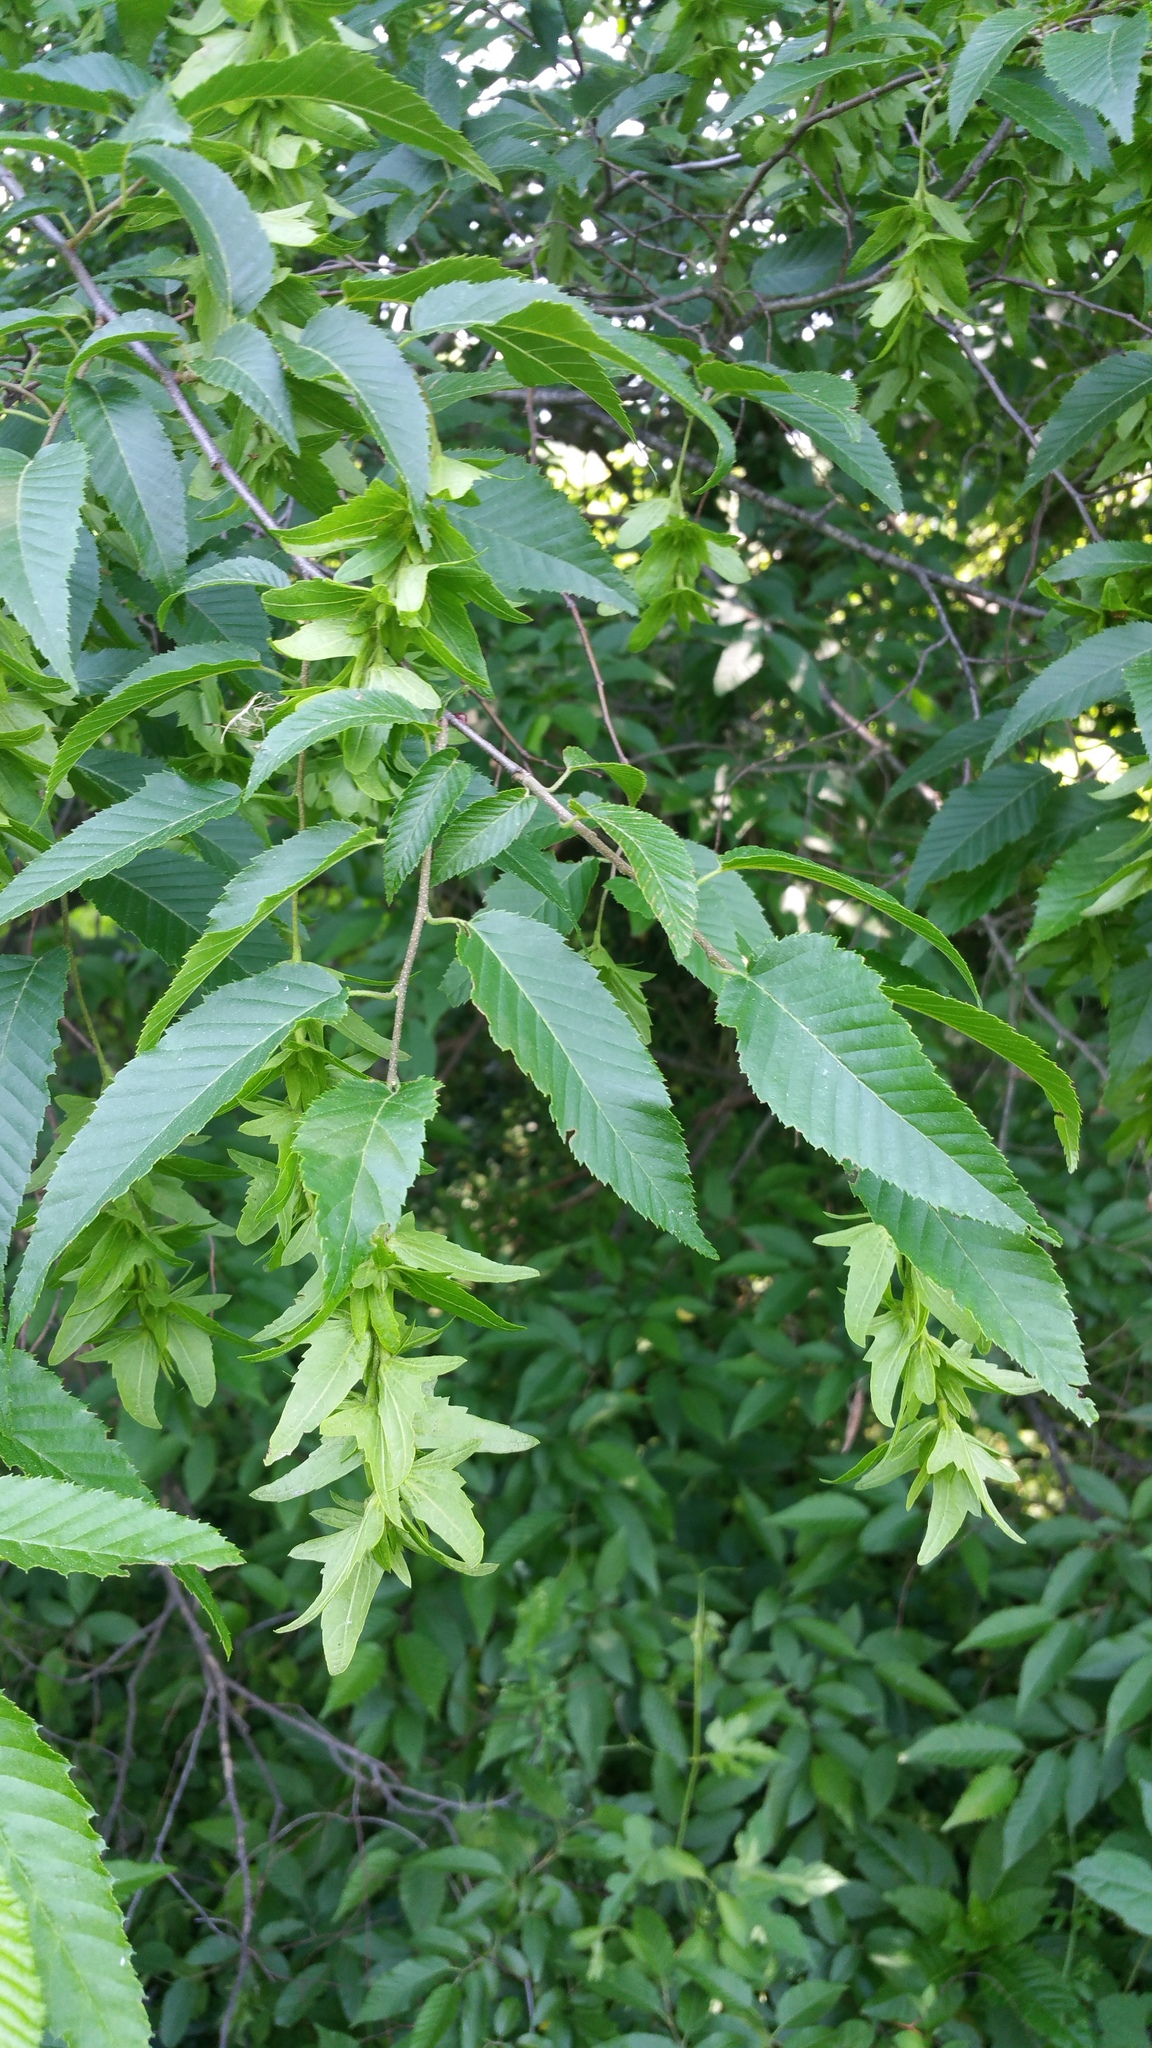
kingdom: Plantae
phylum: Tracheophyta
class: Magnoliopsida
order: Fagales
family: Betulaceae
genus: Carpinus
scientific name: Carpinus caroliniana
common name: American hornbeam
